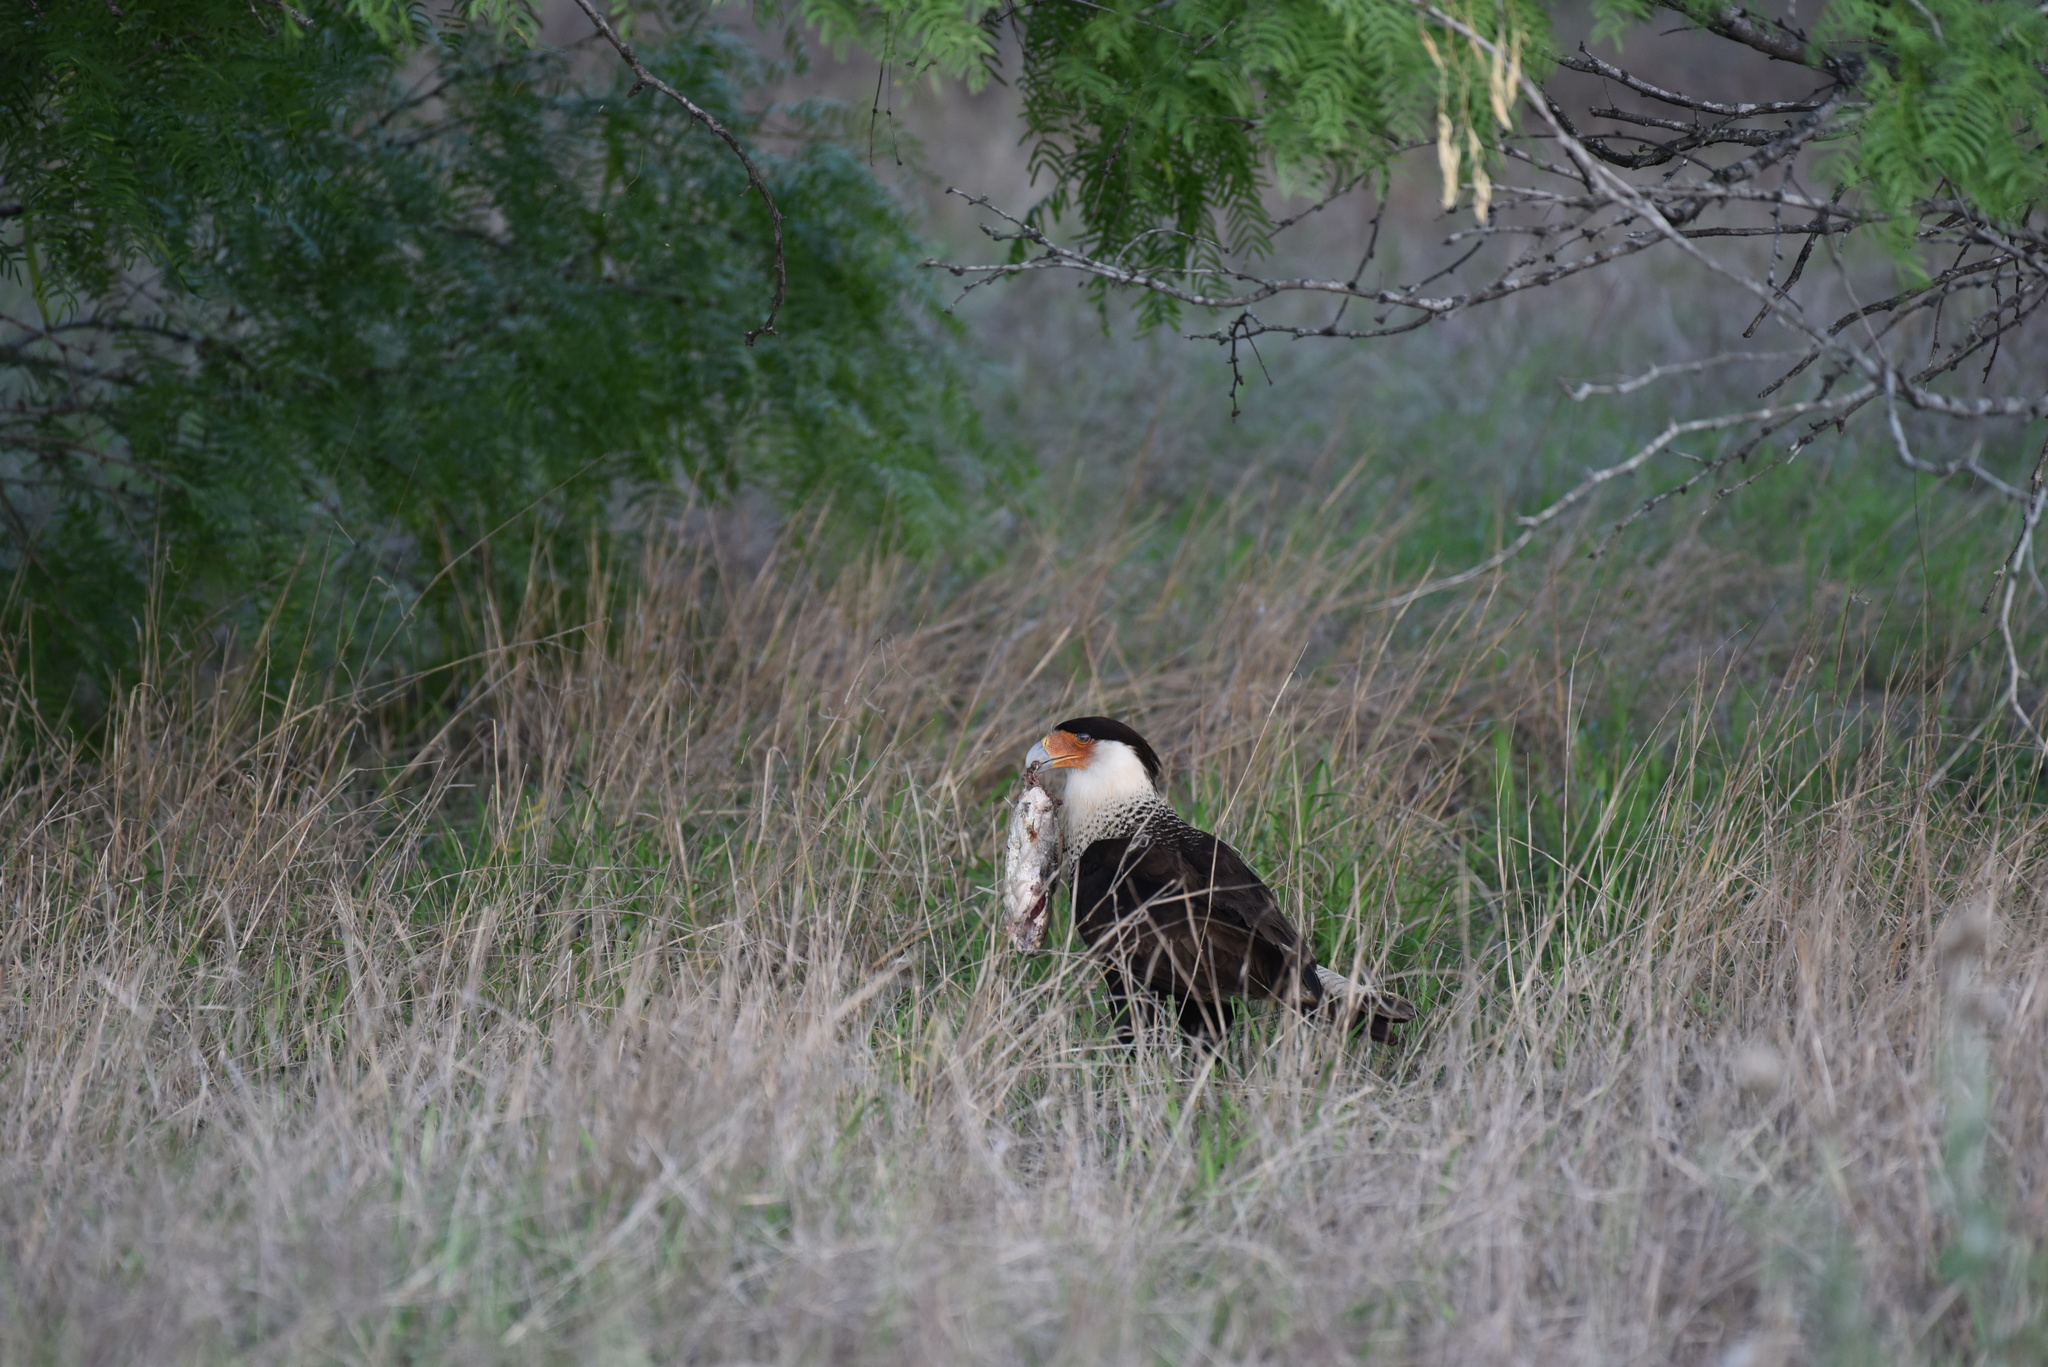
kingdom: Animalia
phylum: Chordata
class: Aves
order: Falconiformes
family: Falconidae
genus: Caracara
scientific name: Caracara plancus
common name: Southern caracara
